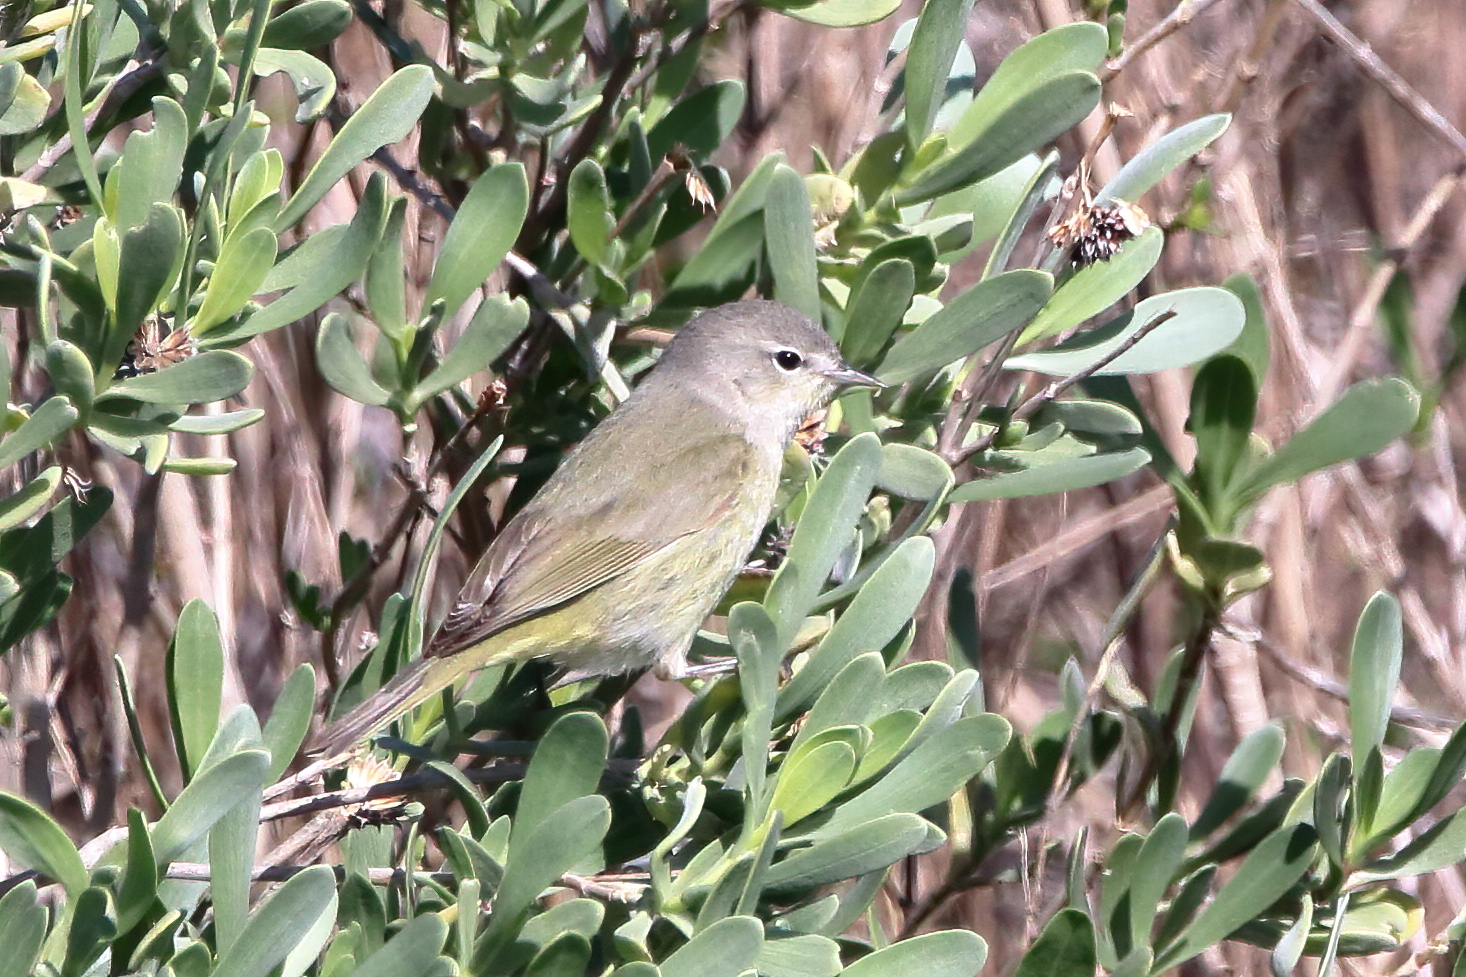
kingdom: Animalia
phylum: Chordata
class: Aves
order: Passeriformes
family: Parulidae
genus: Leiothlypis
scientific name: Leiothlypis celata
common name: Orange-crowned warbler
